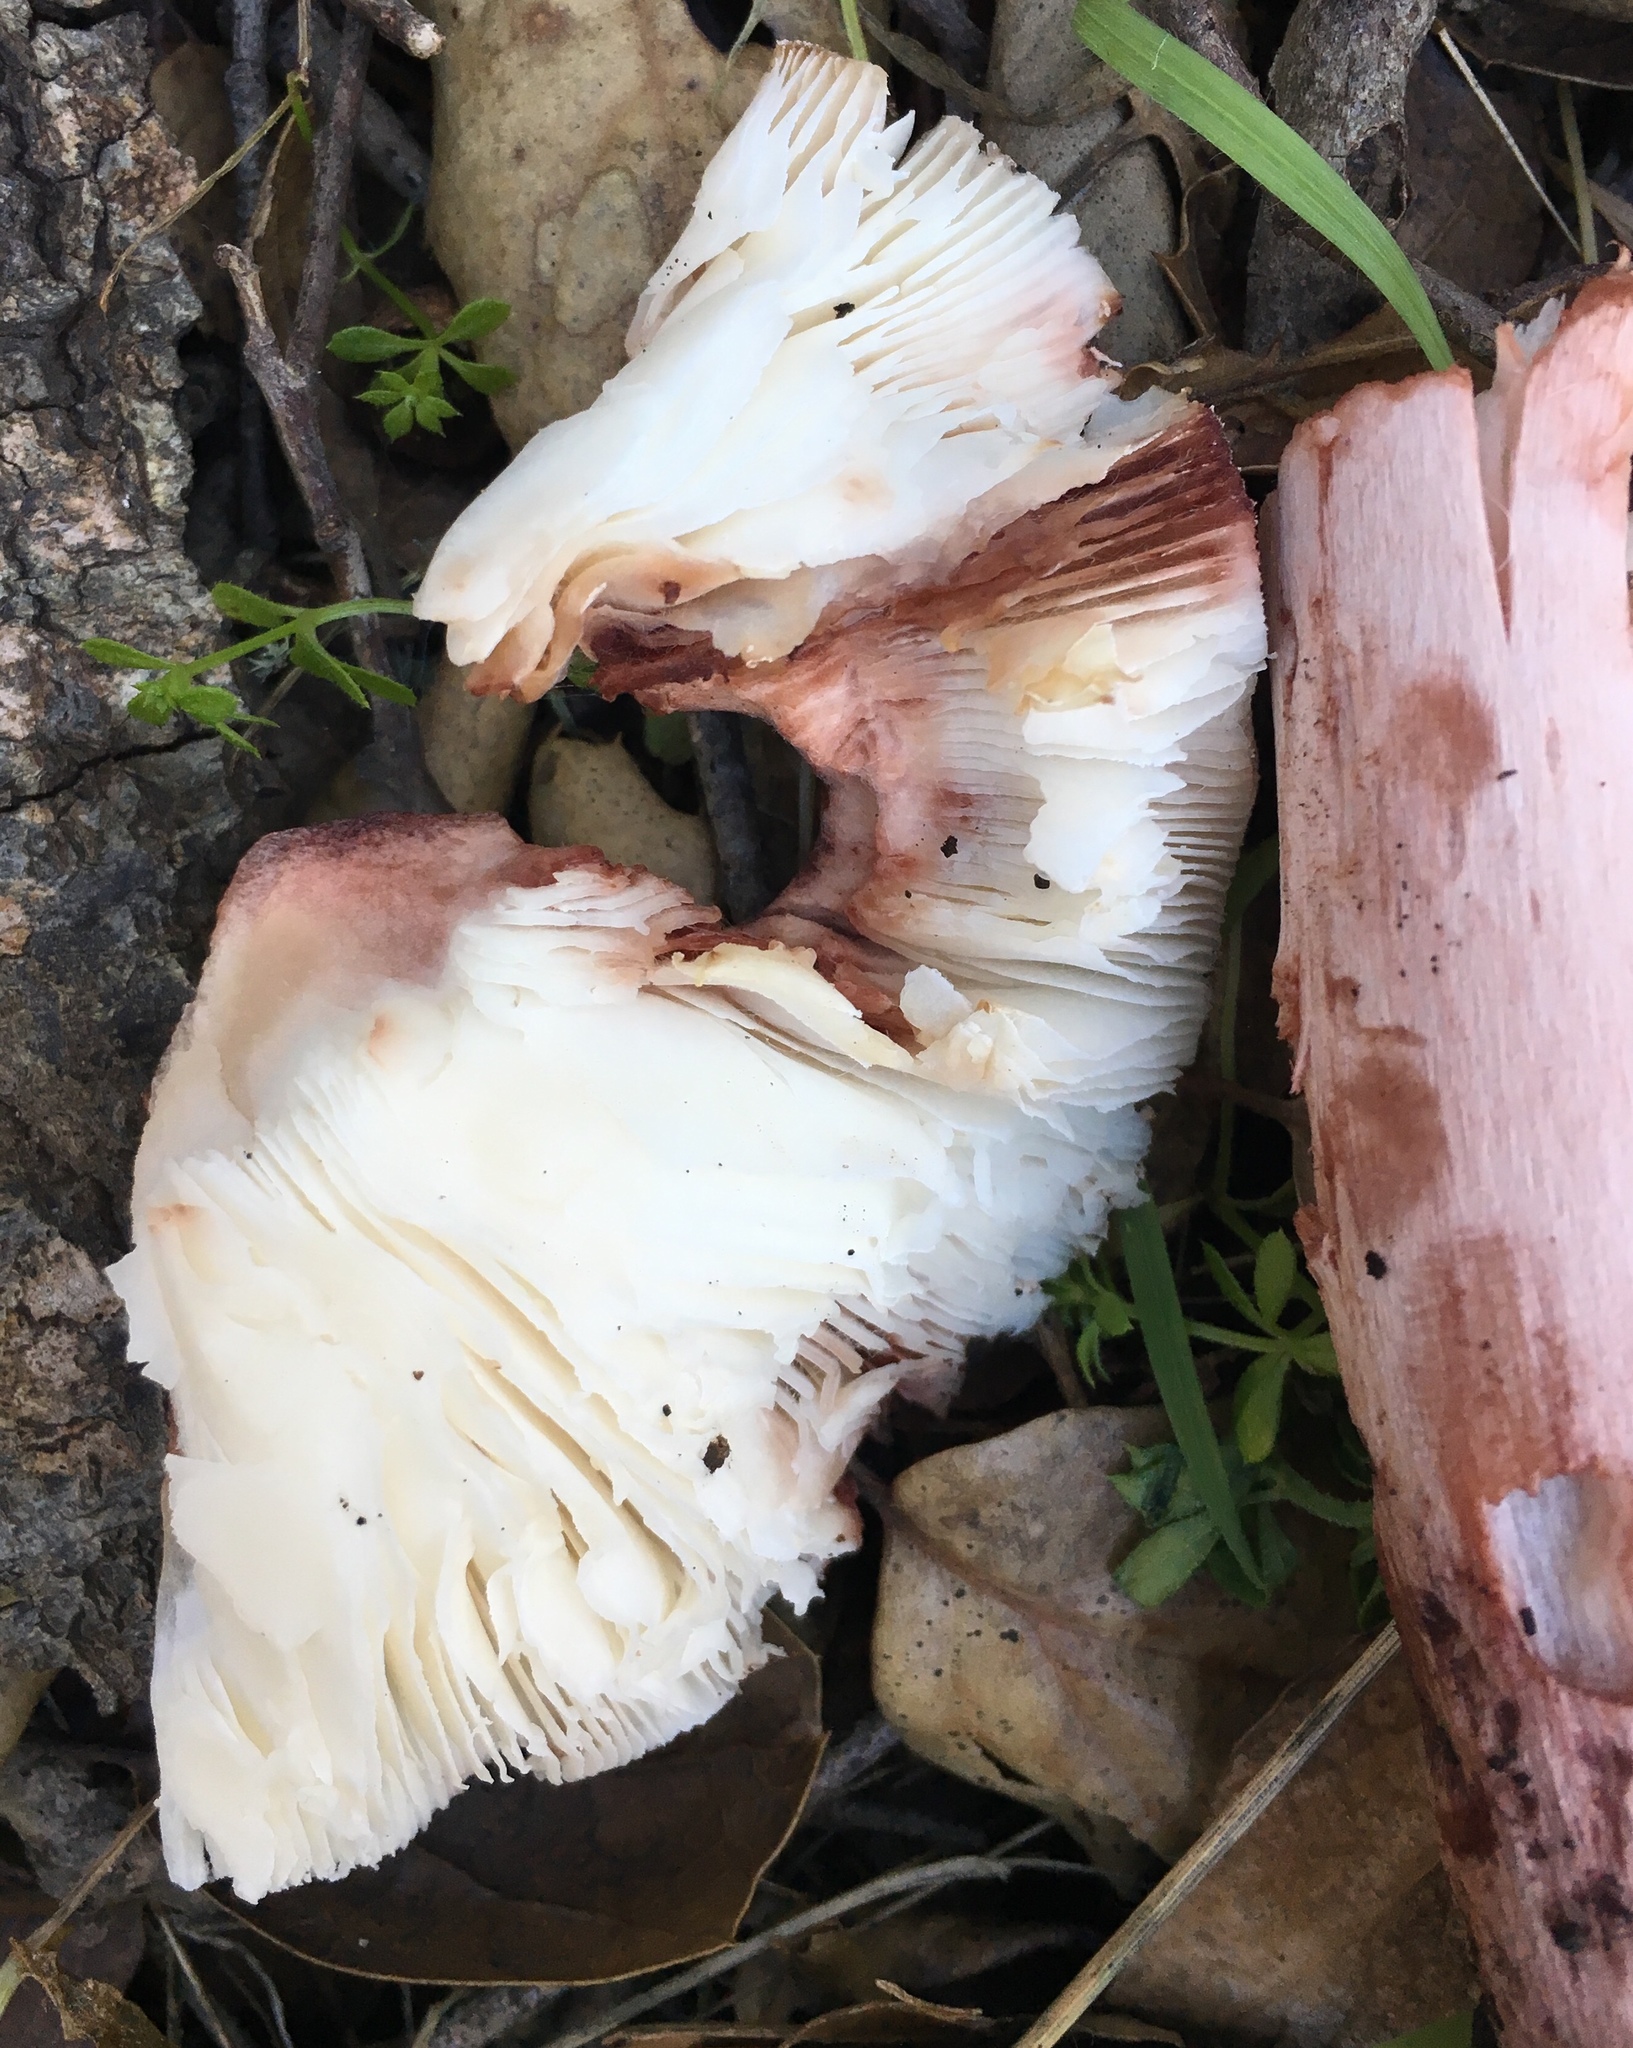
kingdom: Fungi
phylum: Basidiomycota
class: Agaricomycetes
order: Agaricales
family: Amanitaceae
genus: Amanita
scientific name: Amanita novinupta
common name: Blushing bride
